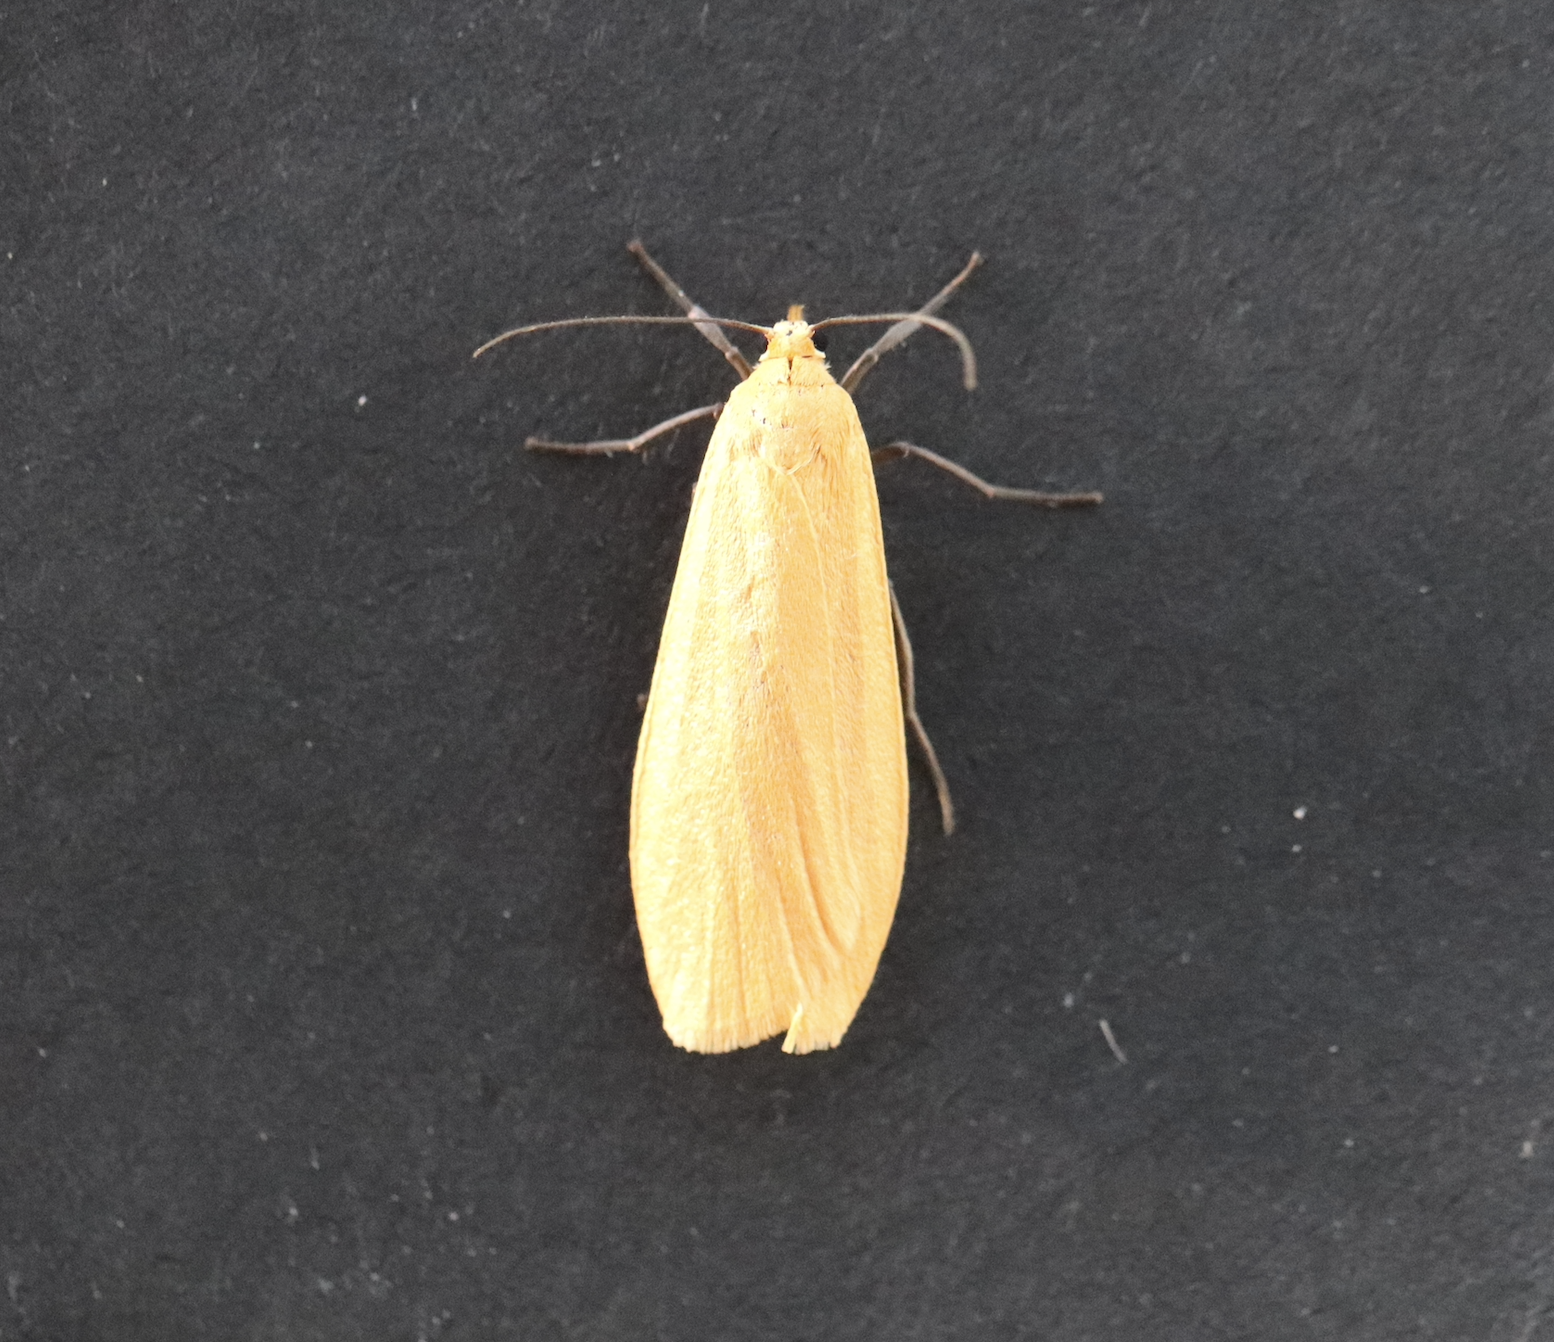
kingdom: Animalia
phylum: Arthropoda
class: Insecta
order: Lepidoptera
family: Erebidae
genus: Wittia
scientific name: Wittia sororcula
